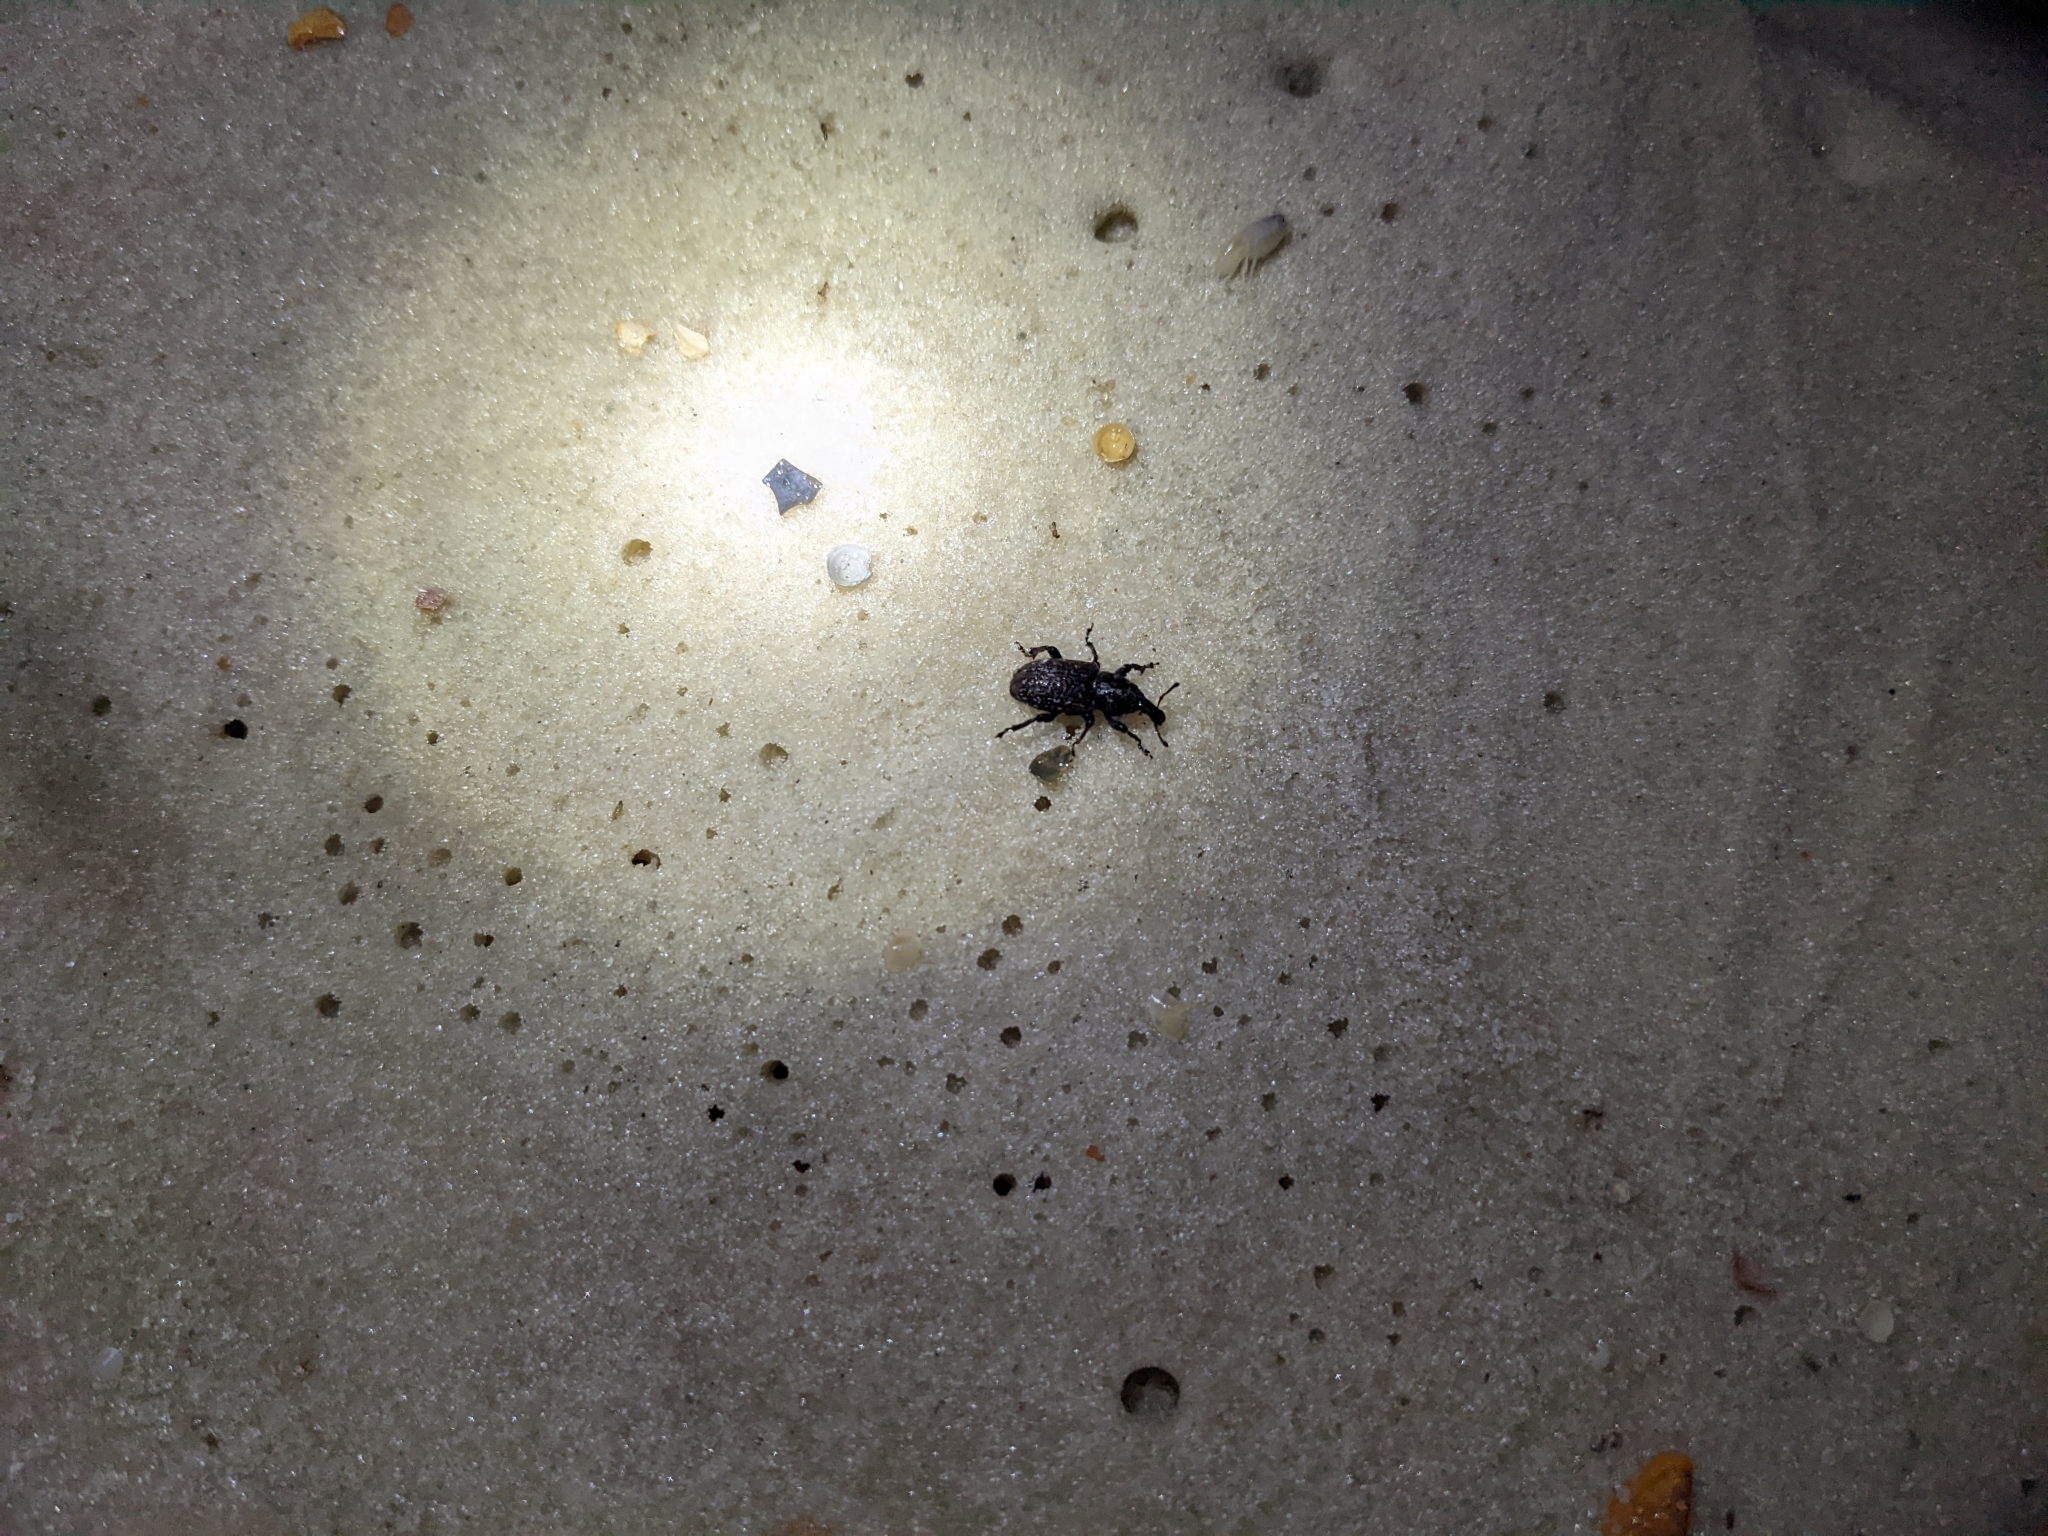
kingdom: Animalia
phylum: Arthropoda
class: Insecta
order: Coleoptera
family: Curculionidae
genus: Pachylobius
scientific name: Pachylobius picivorus
